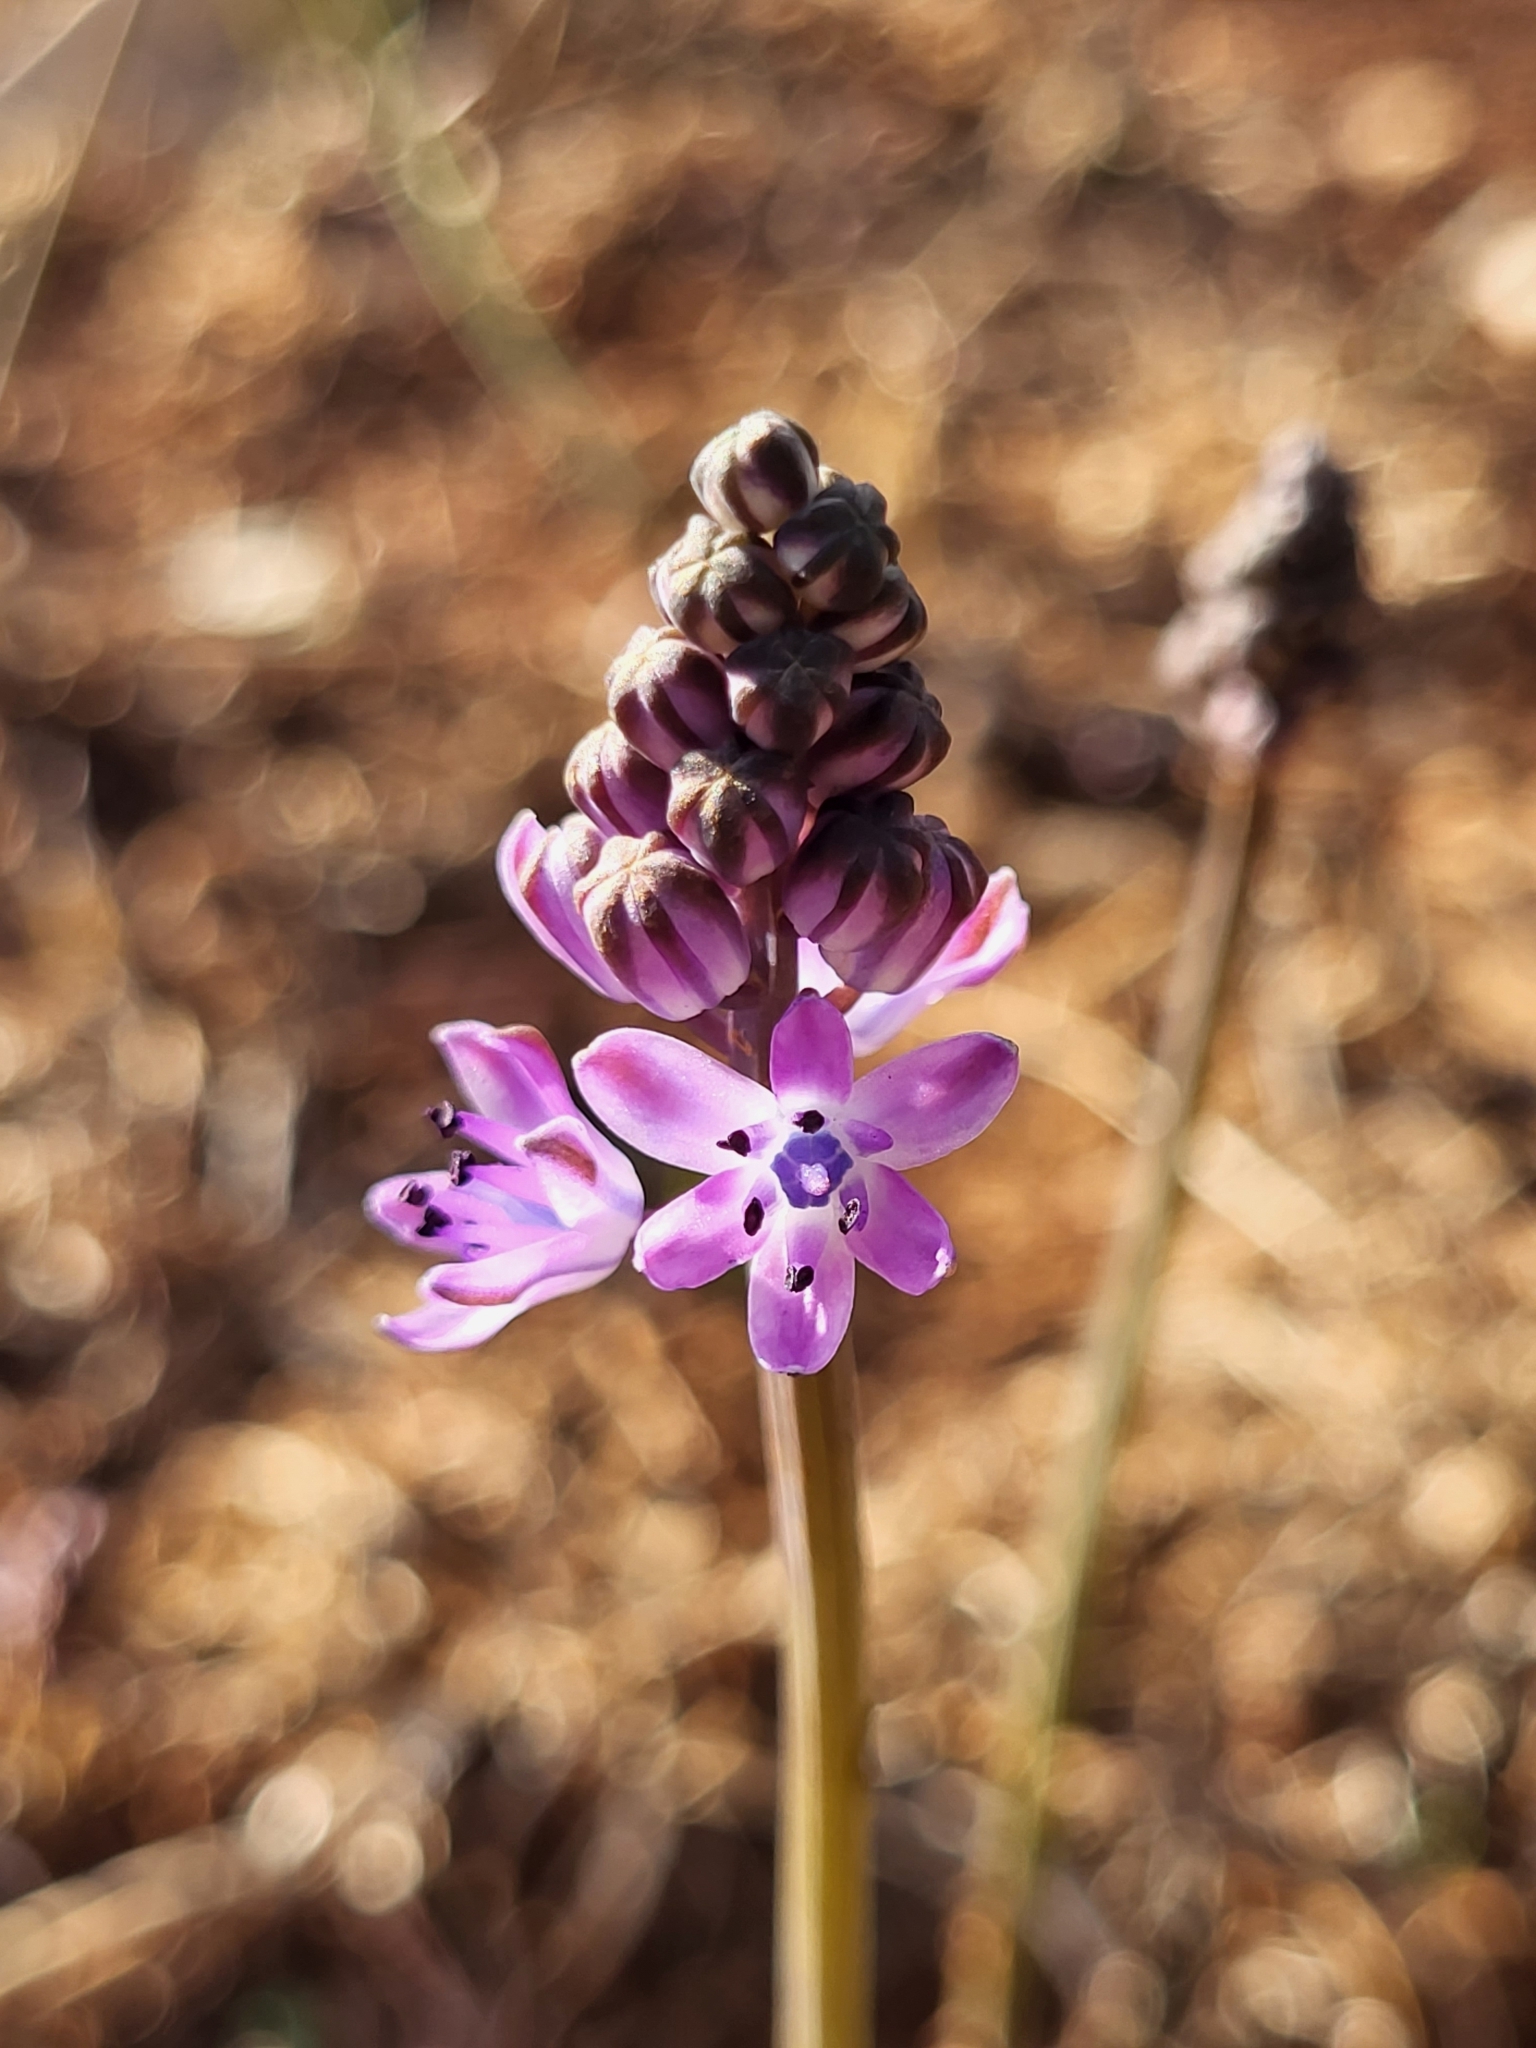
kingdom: Plantae
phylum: Tracheophyta
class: Liliopsida
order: Asparagales
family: Asparagaceae
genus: Prospero
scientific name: Prospero autumnale
